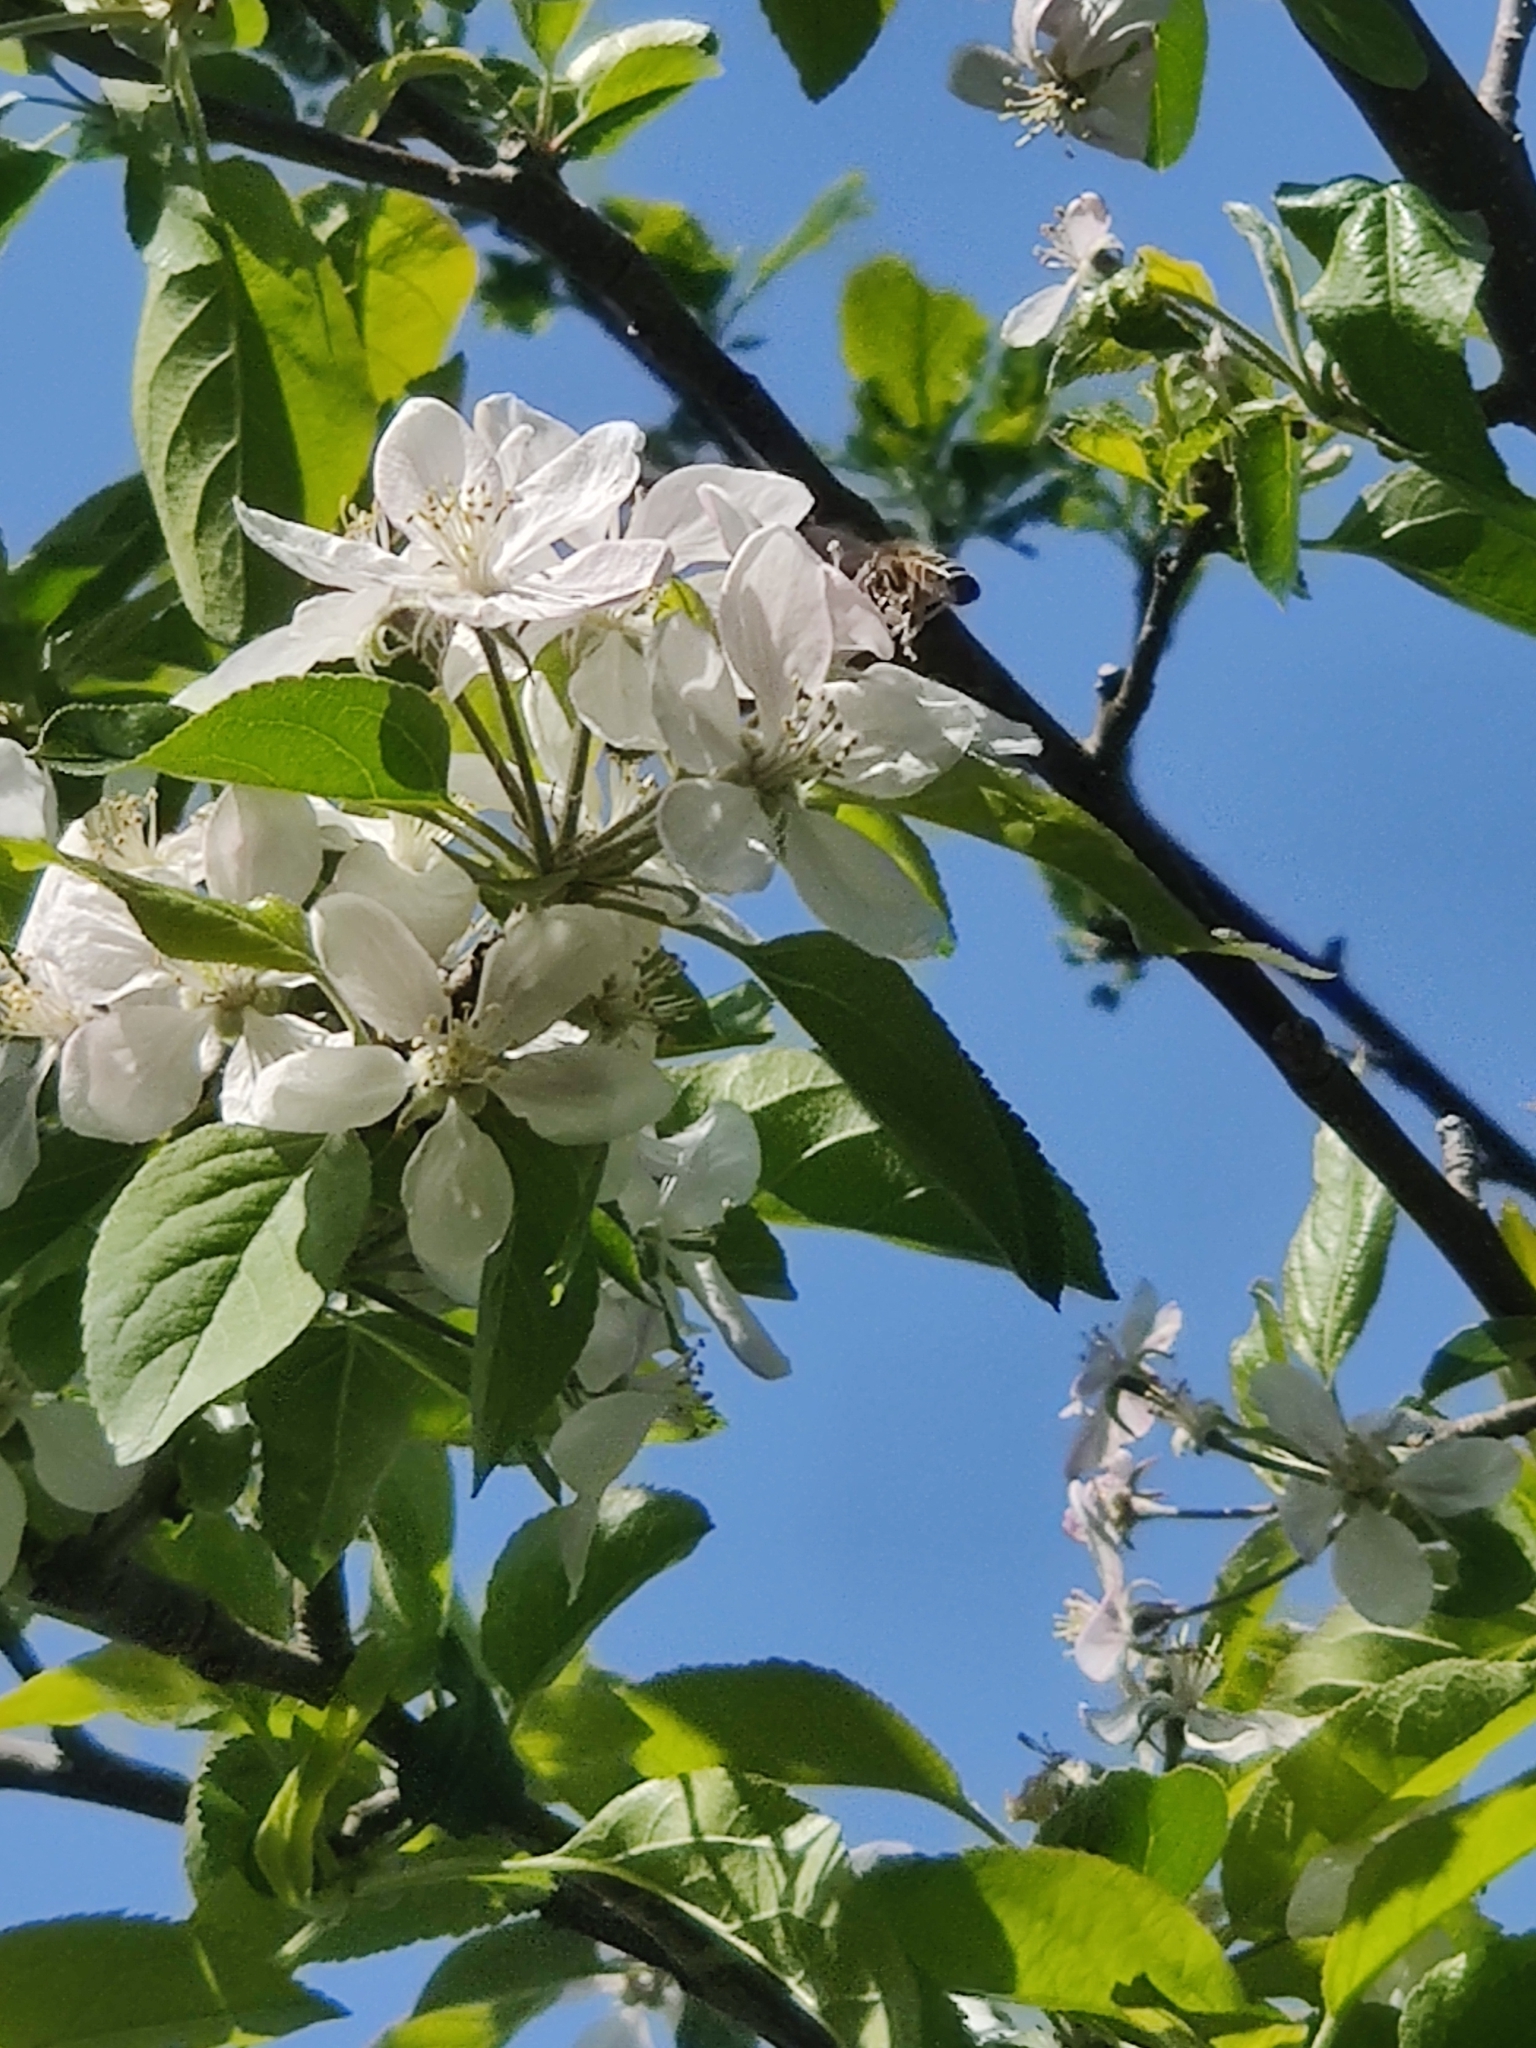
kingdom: Animalia
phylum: Arthropoda
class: Insecta
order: Hymenoptera
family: Apidae
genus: Apis
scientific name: Apis mellifera
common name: Honey bee
